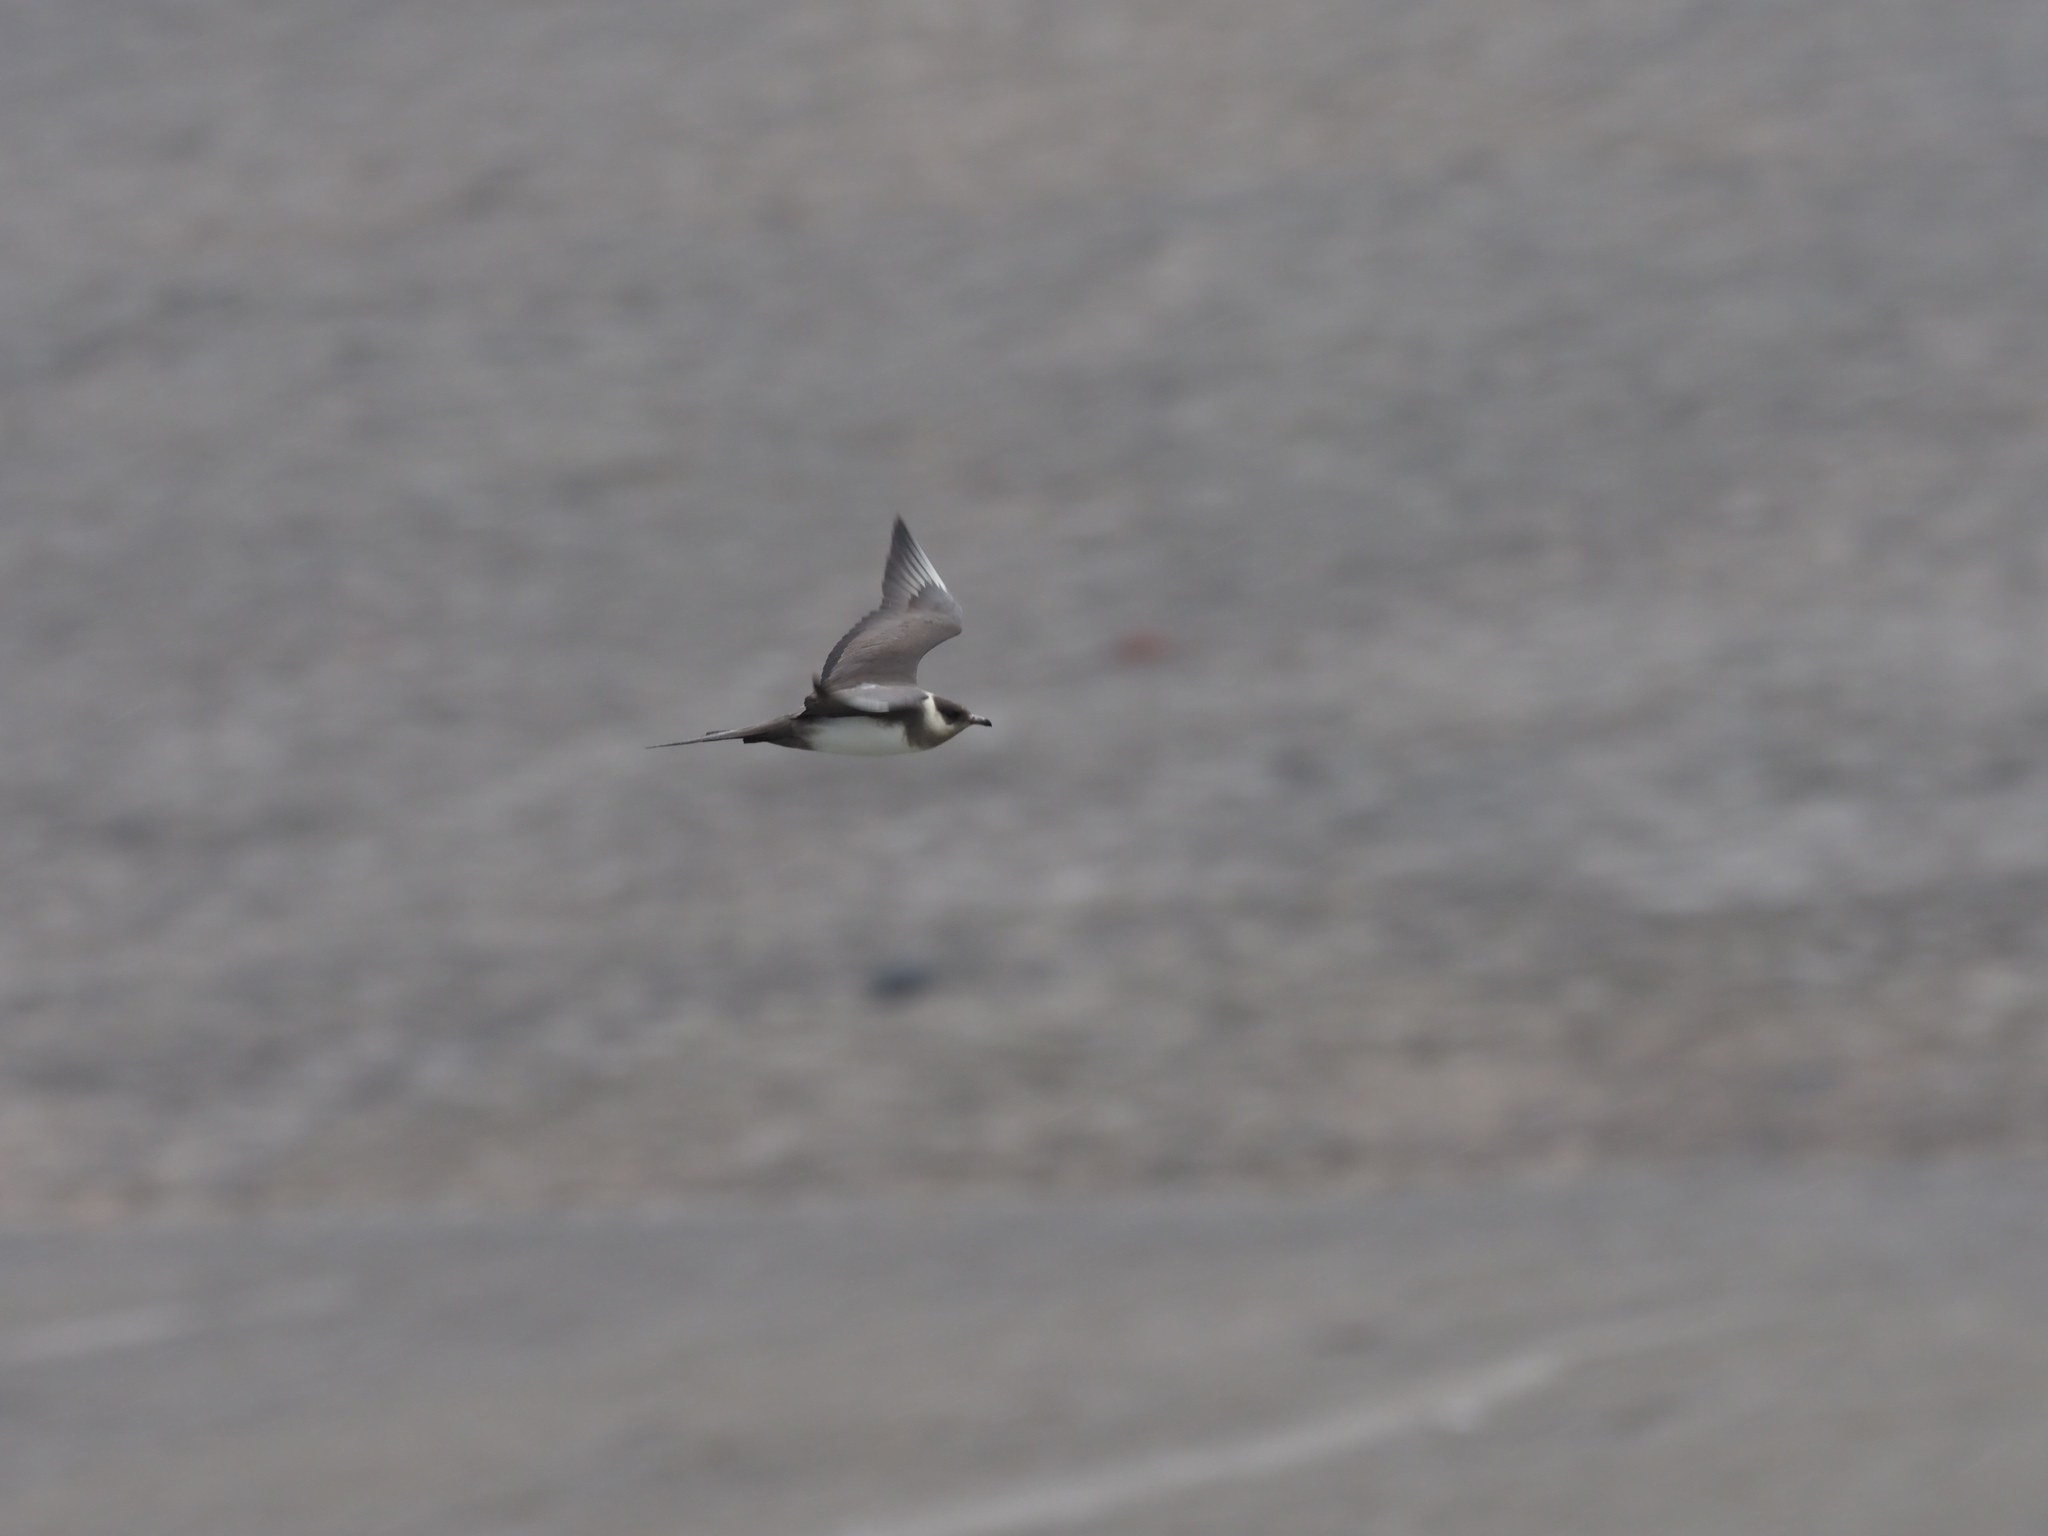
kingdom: Animalia
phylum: Chordata
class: Aves
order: Charadriiformes
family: Stercorariidae
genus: Stercorarius
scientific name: Stercorarius parasiticus
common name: Parasitic jaeger
